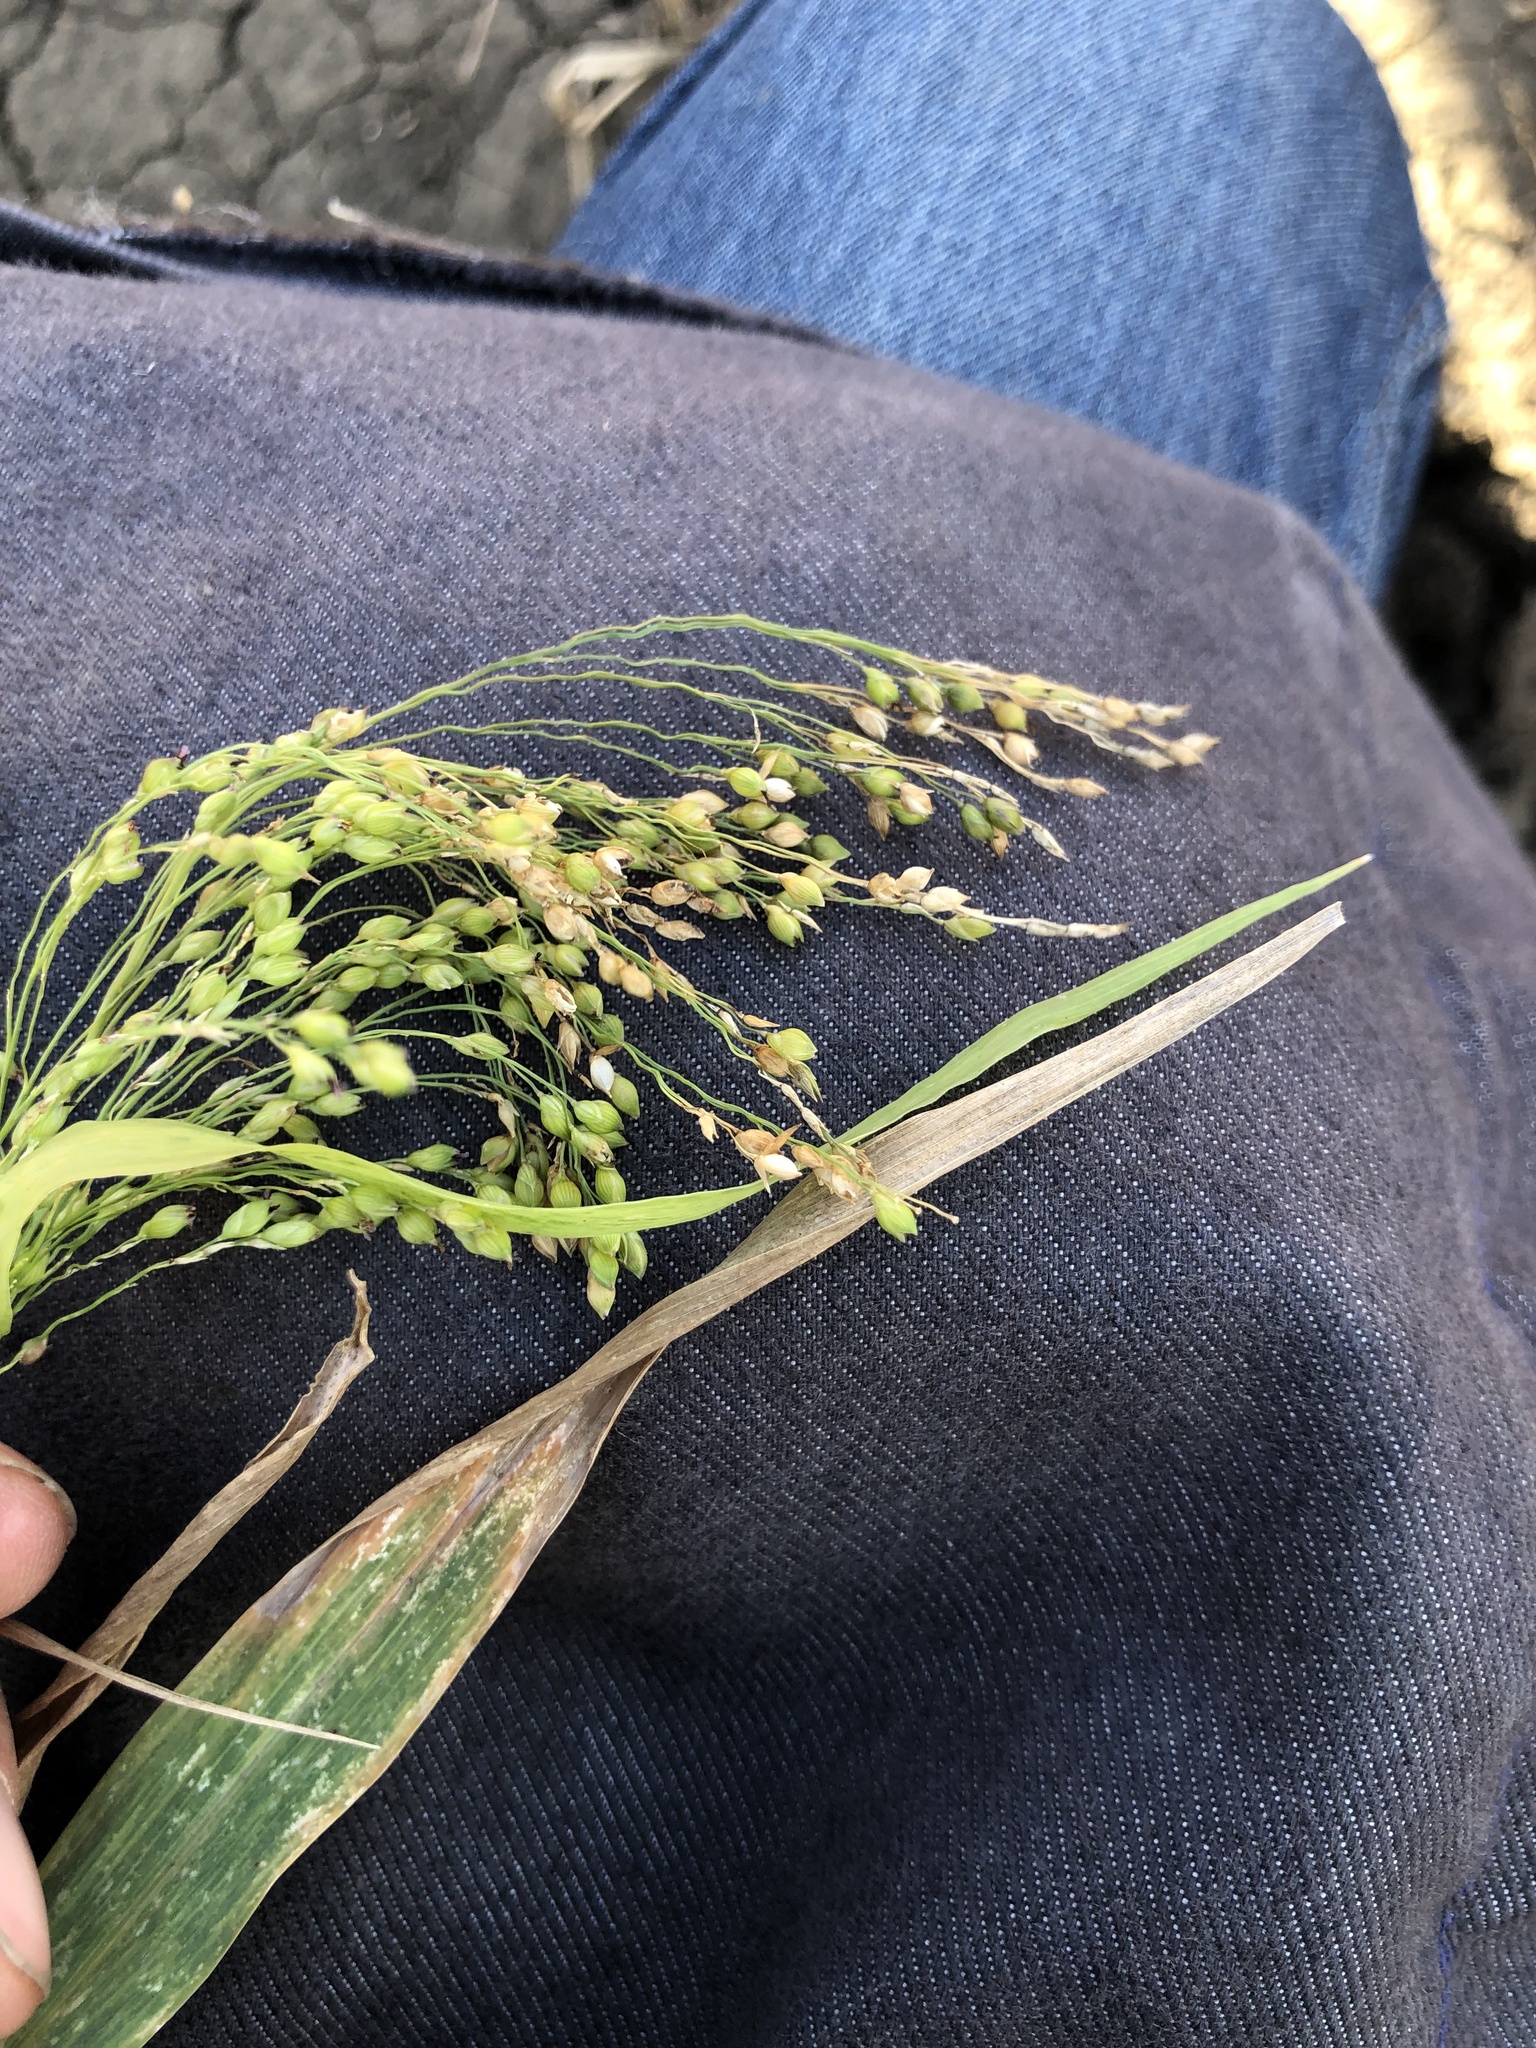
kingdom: Plantae
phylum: Tracheophyta
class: Liliopsida
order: Poales
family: Poaceae
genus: Panicum
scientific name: Panicum miliaceum
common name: Common millet
